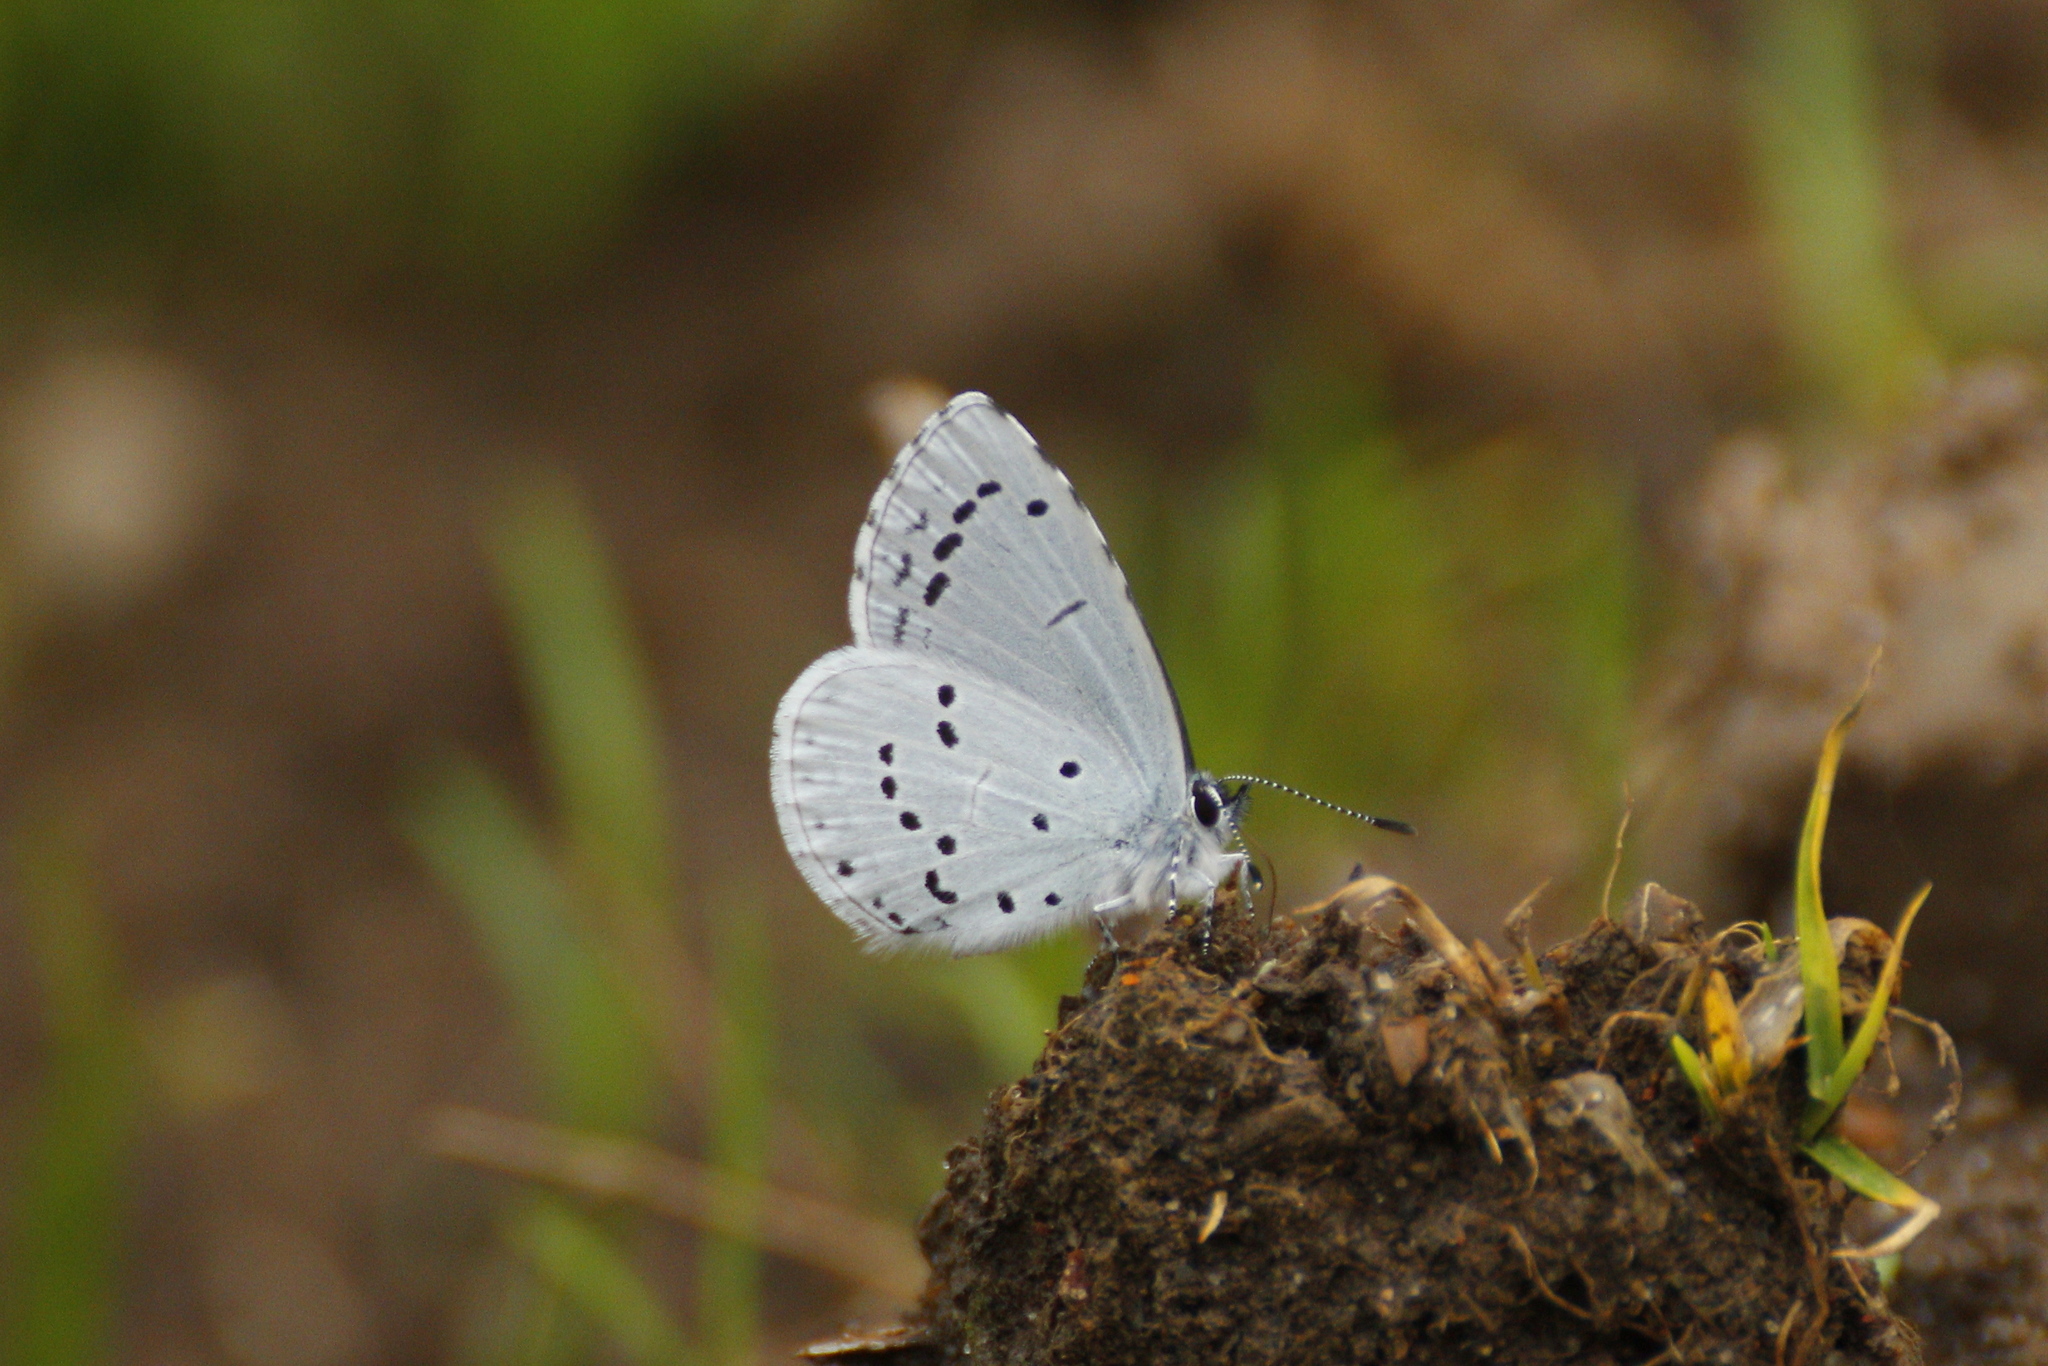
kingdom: Animalia
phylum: Arthropoda
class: Insecta
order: Lepidoptera
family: Lycaenidae
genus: Celastrina
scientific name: Celastrina argiolus
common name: Holly blue
